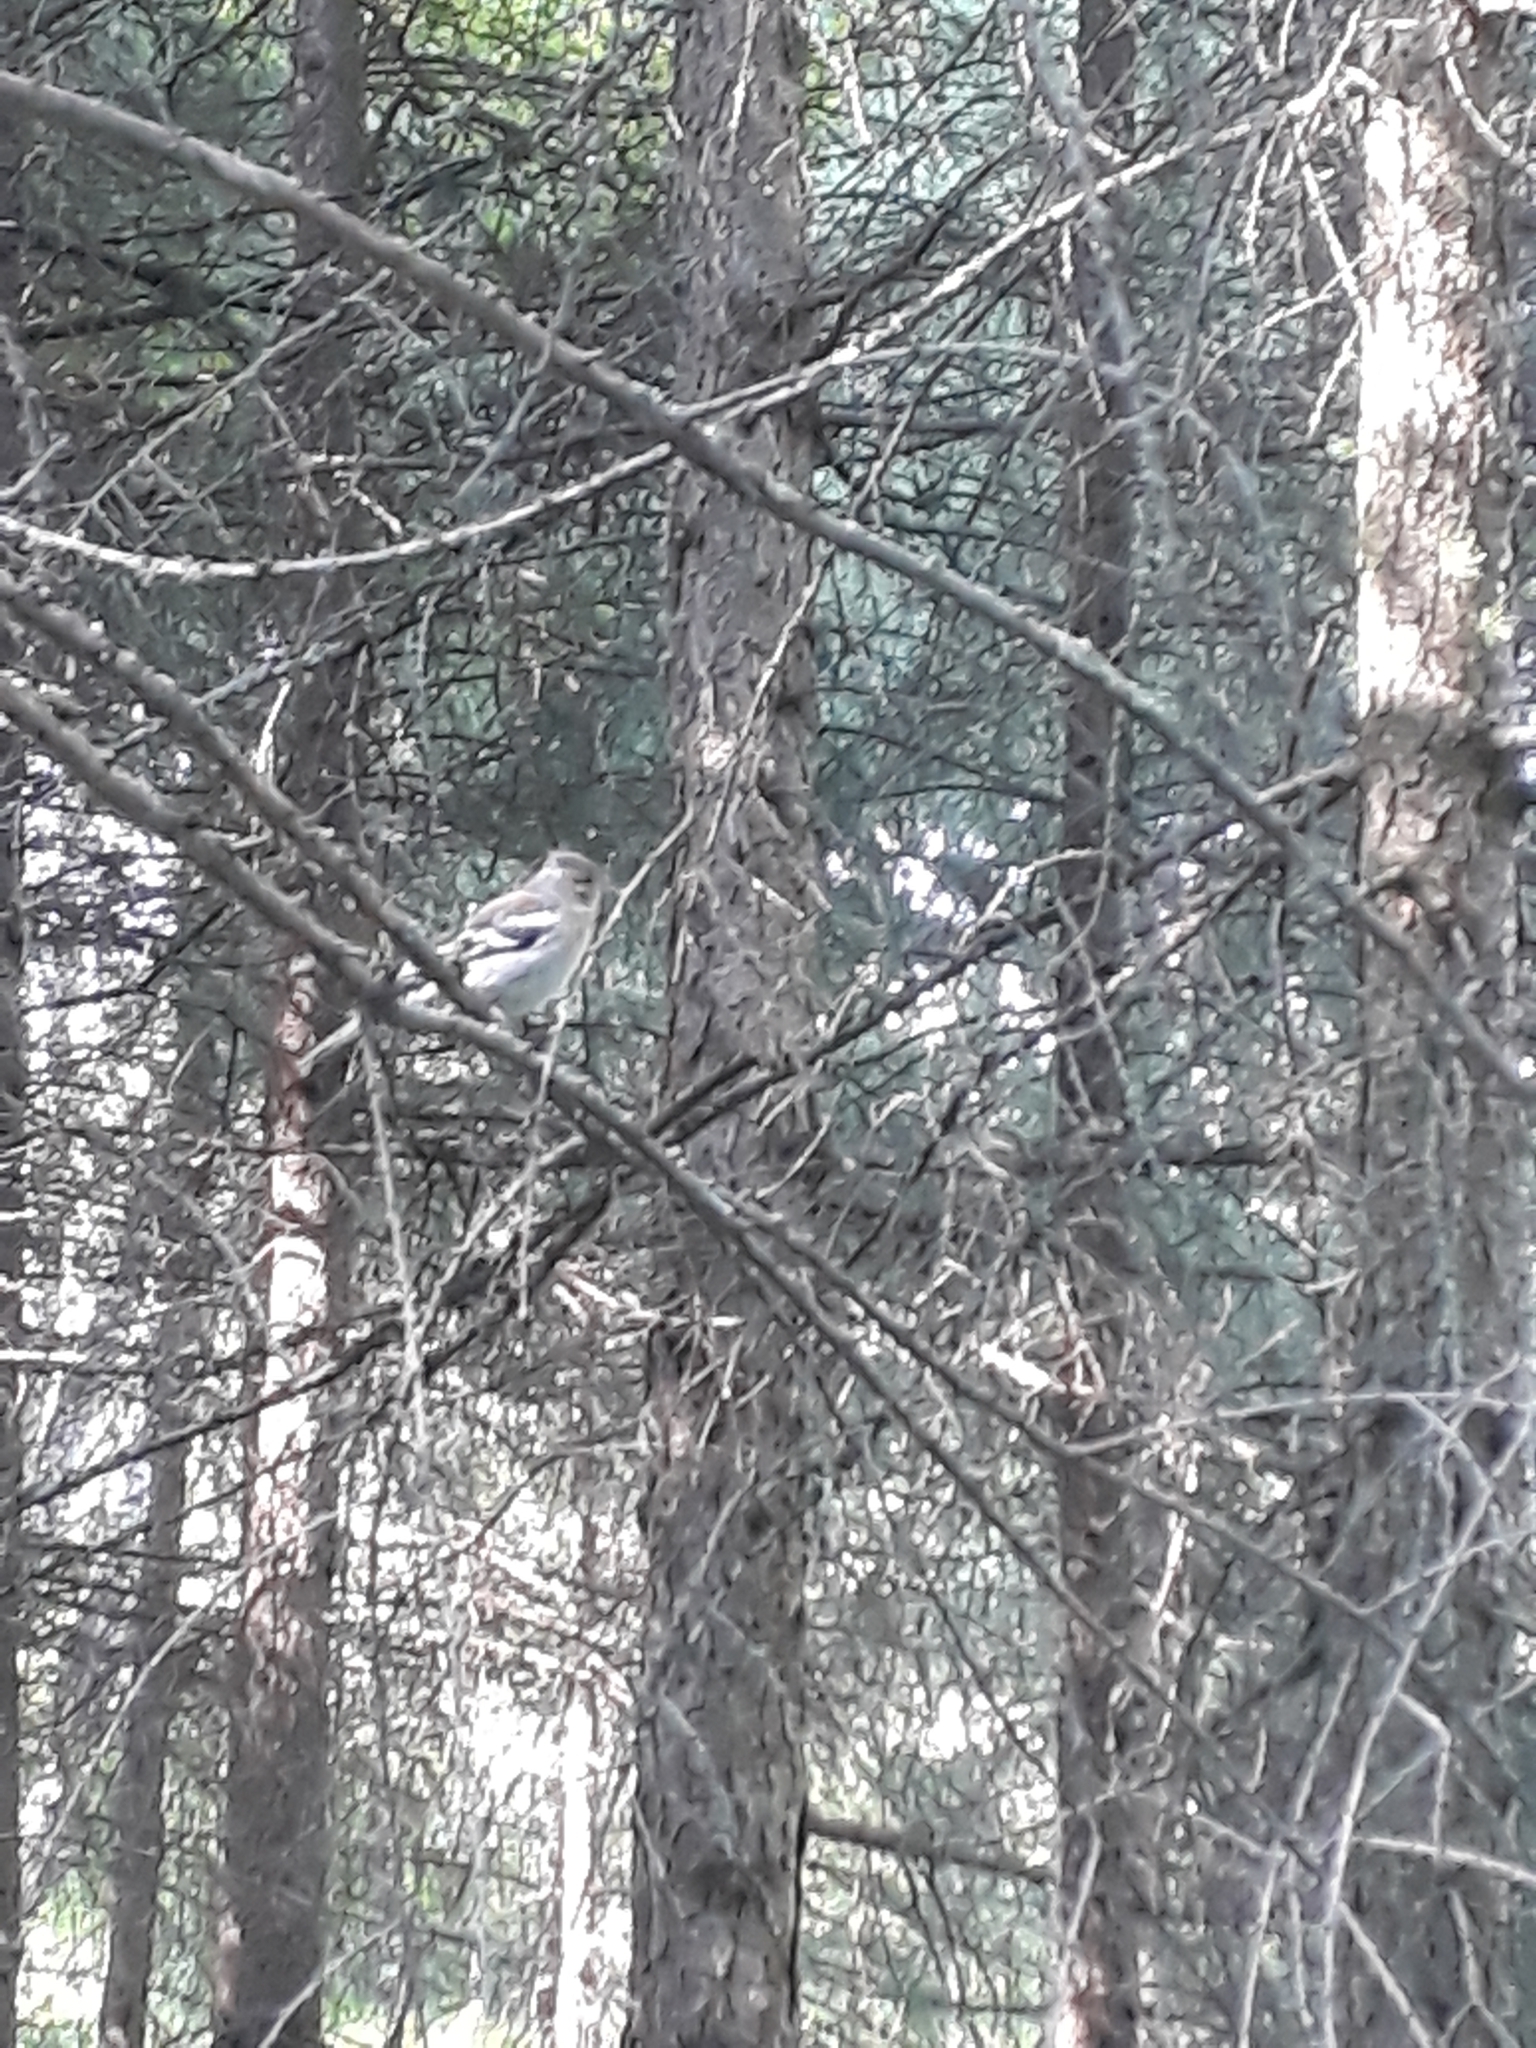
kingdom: Animalia
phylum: Chordata
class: Aves
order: Passeriformes
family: Fringillidae
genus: Fringilla
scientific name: Fringilla coelebs
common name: Common chaffinch
